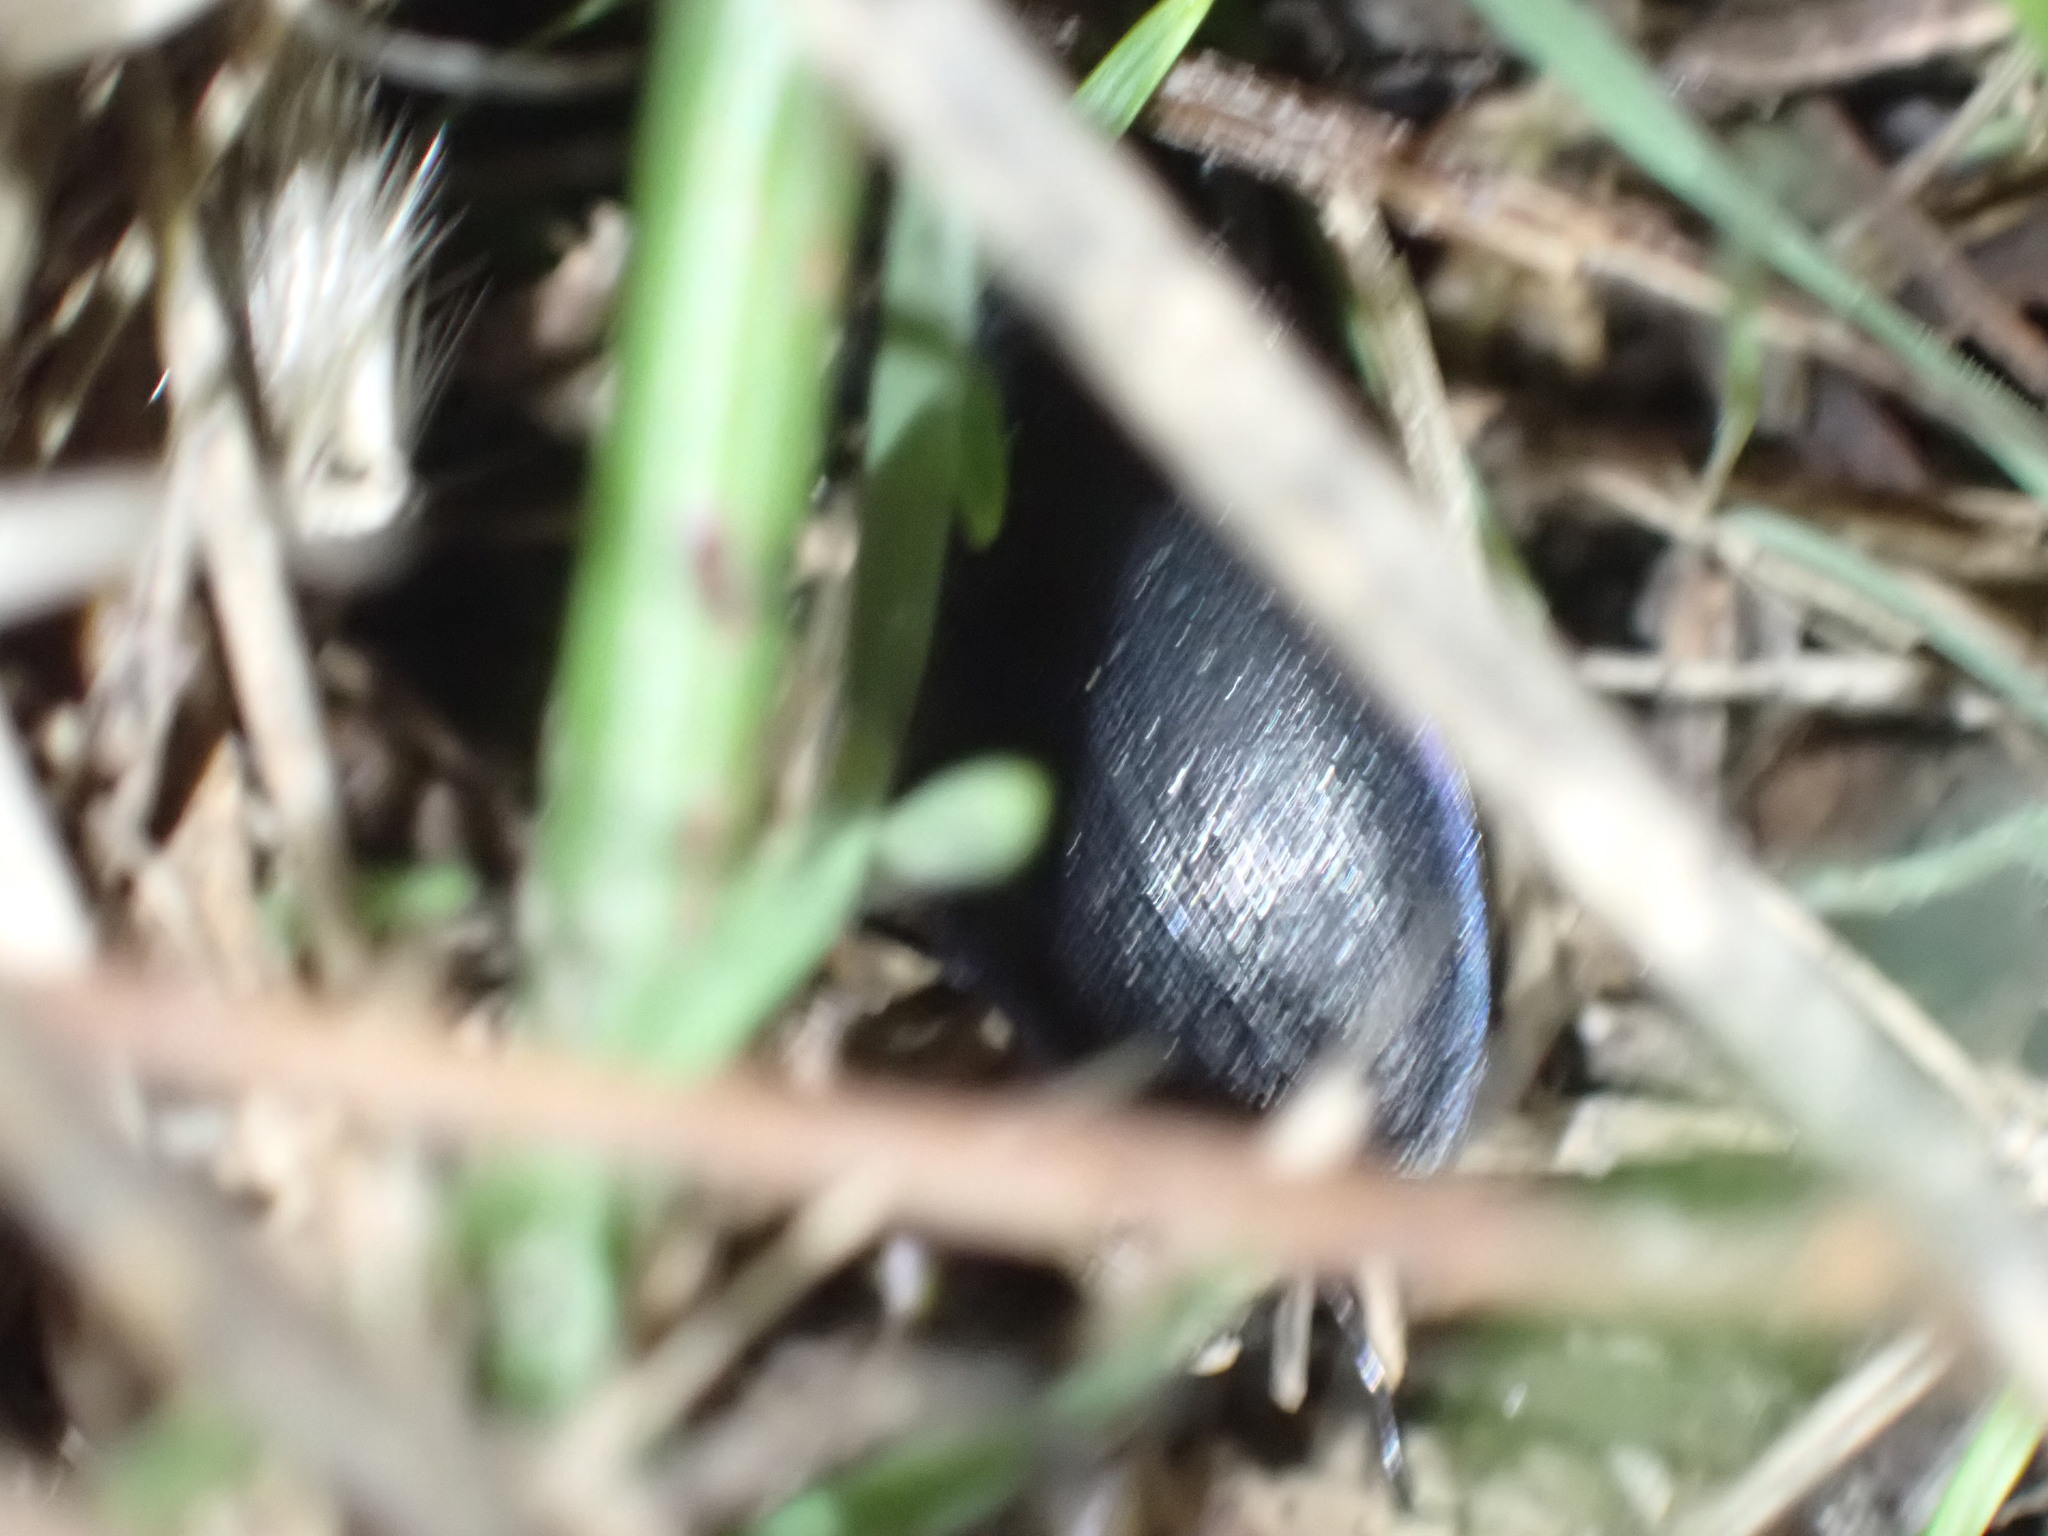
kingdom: Animalia
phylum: Arthropoda
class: Insecta
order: Coleoptera
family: Carabidae
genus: Carabus
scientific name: Carabus problematicus
